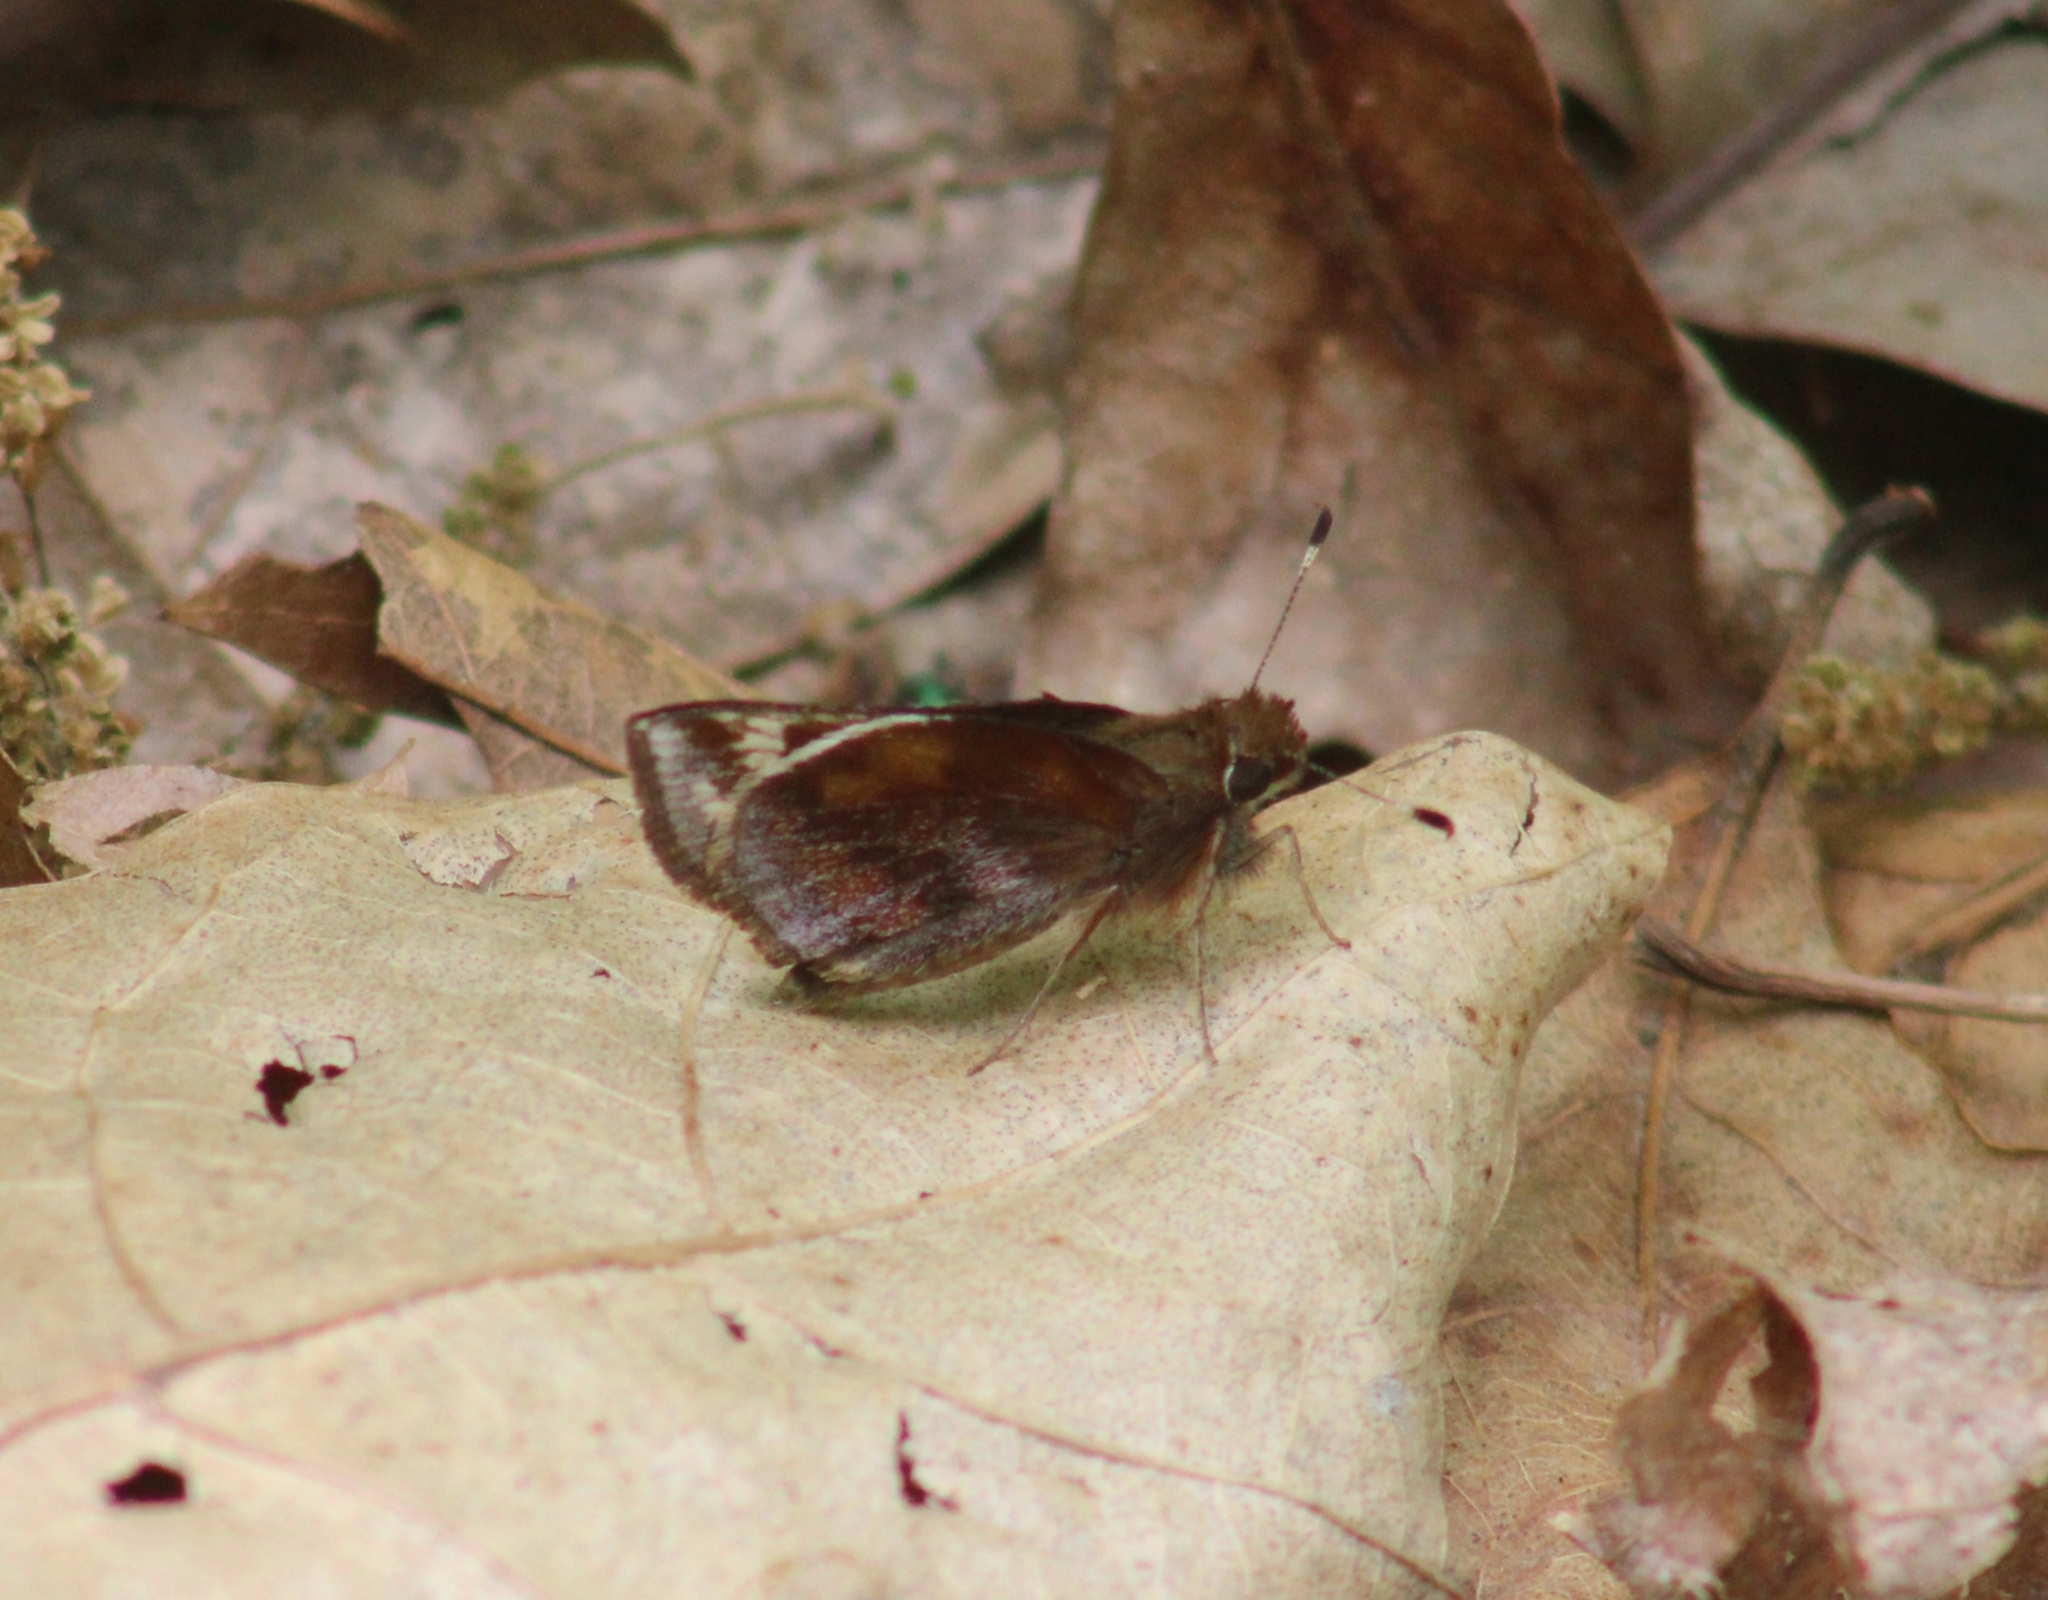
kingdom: Animalia
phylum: Arthropoda
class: Insecta
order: Lepidoptera
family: Hesperiidae
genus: Lon
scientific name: Lon zabulon
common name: Zabulon skipper
